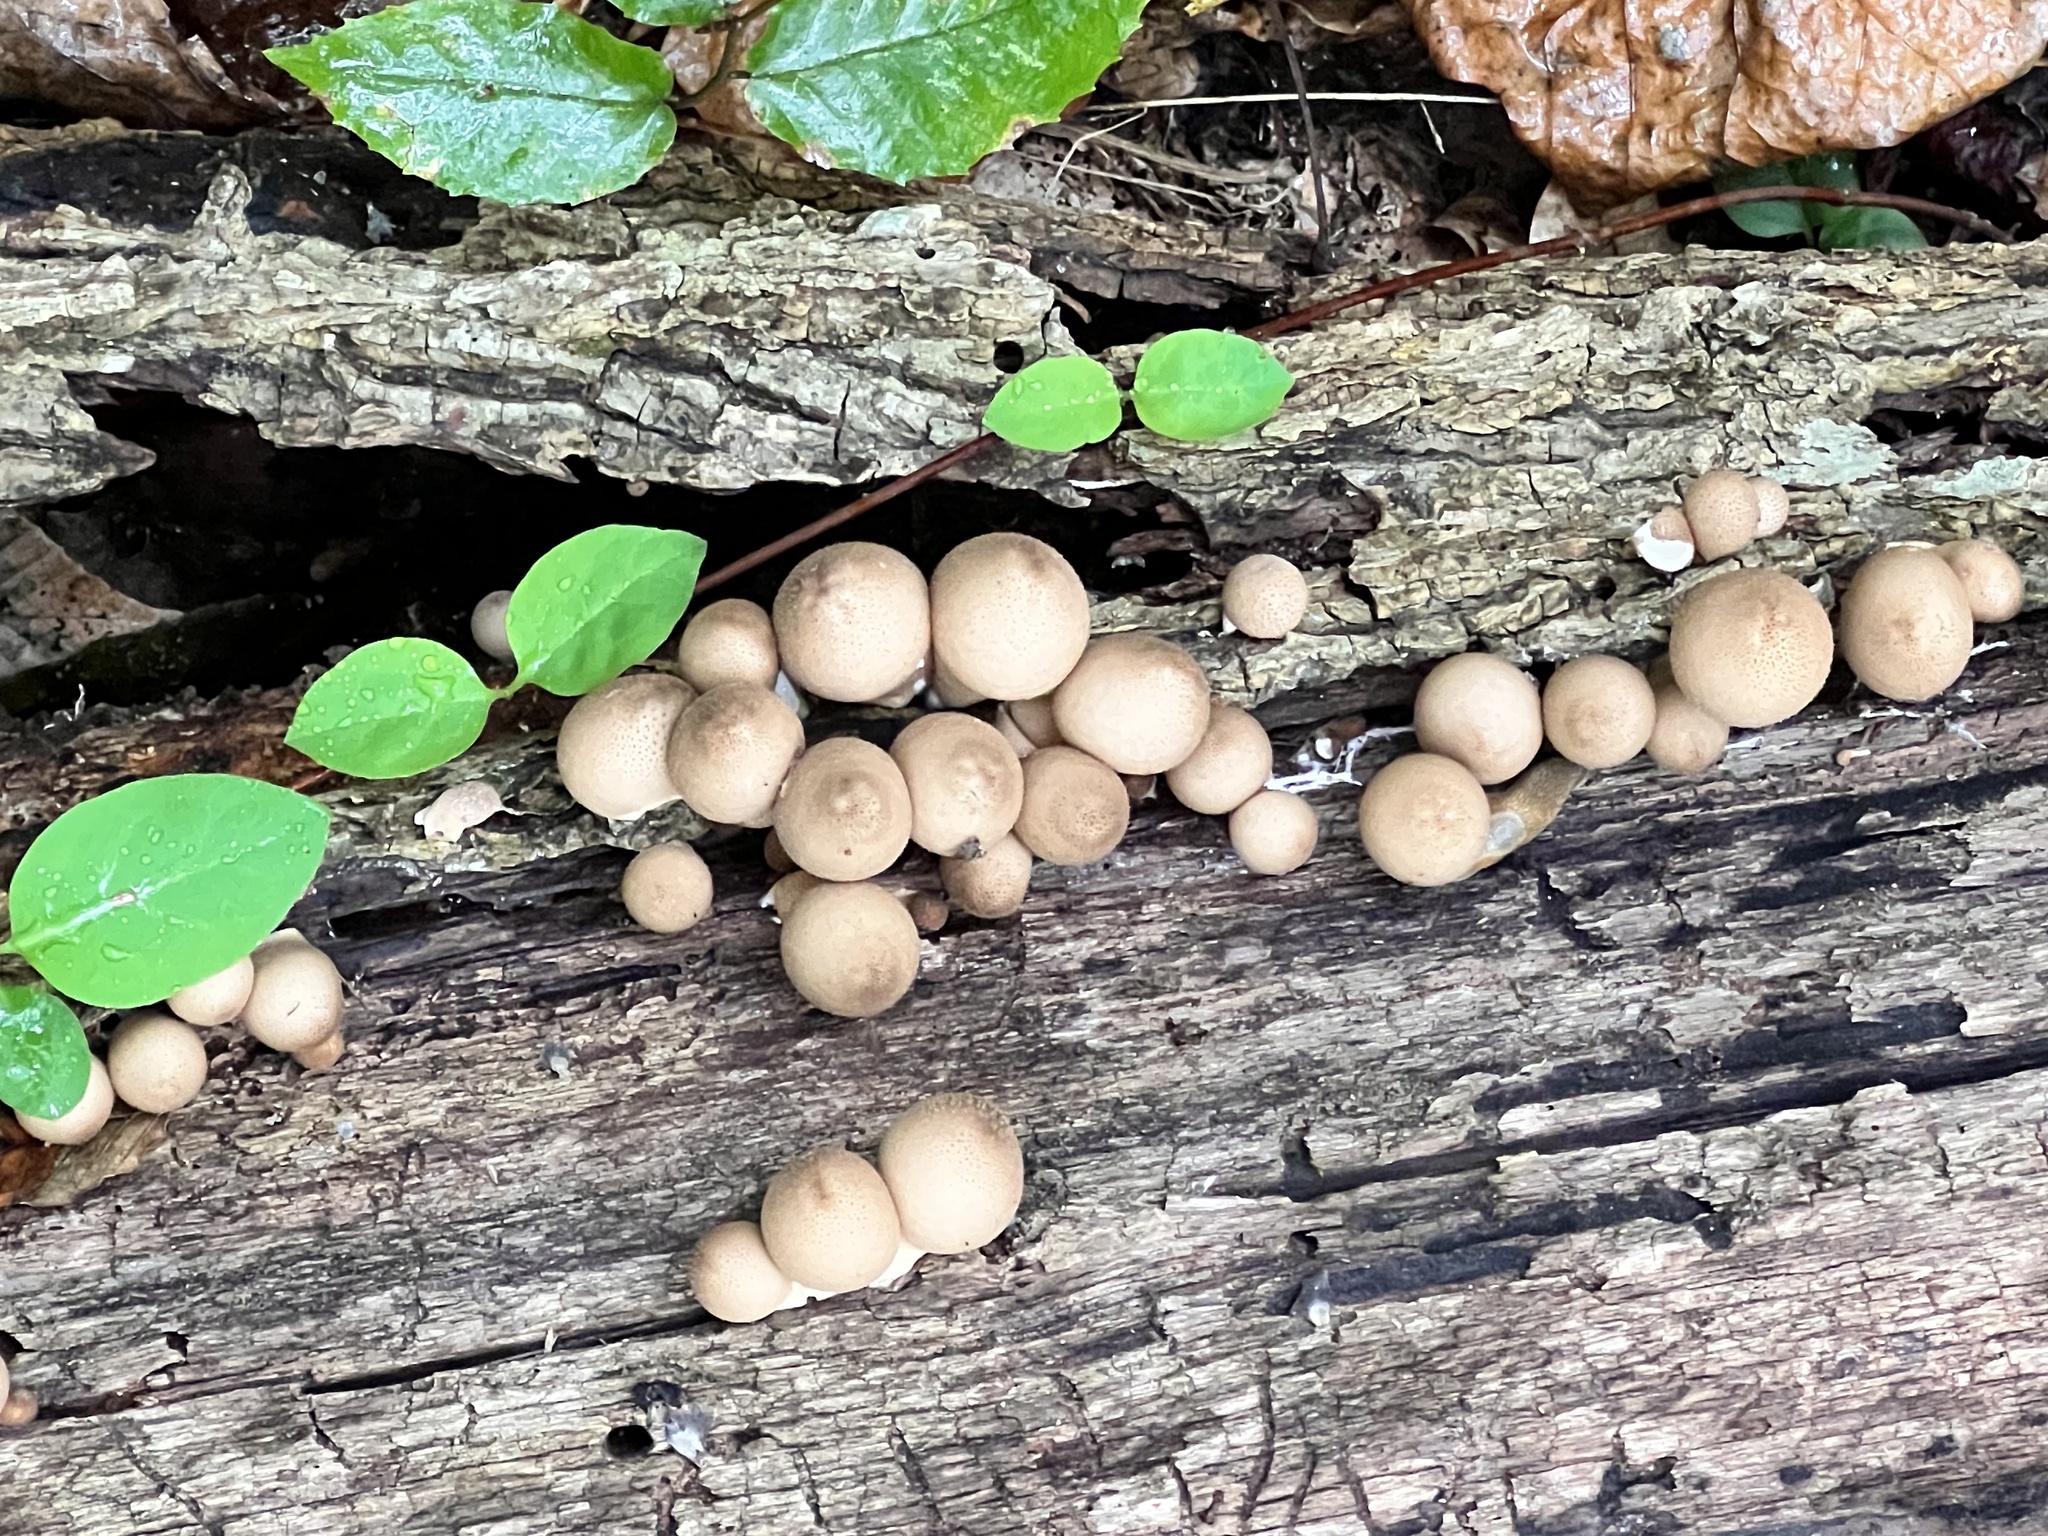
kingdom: Fungi
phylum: Basidiomycota
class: Agaricomycetes
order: Agaricales
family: Lycoperdaceae
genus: Apioperdon
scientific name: Apioperdon pyriforme
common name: Pear-shaped puffball
